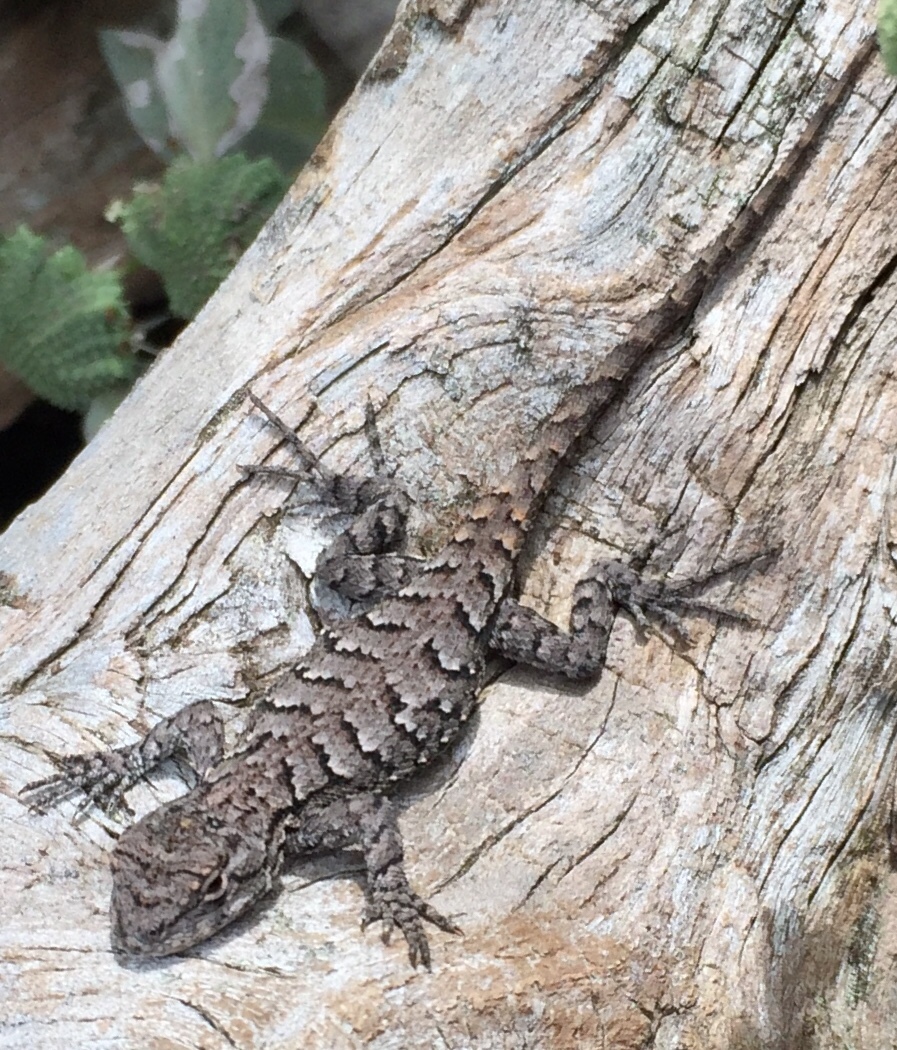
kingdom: Animalia
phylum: Chordata
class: Squamata
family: Phrynosomatidae
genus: Sceloporus
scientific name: Sceloporus undulatus
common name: Eastern fence lizard
